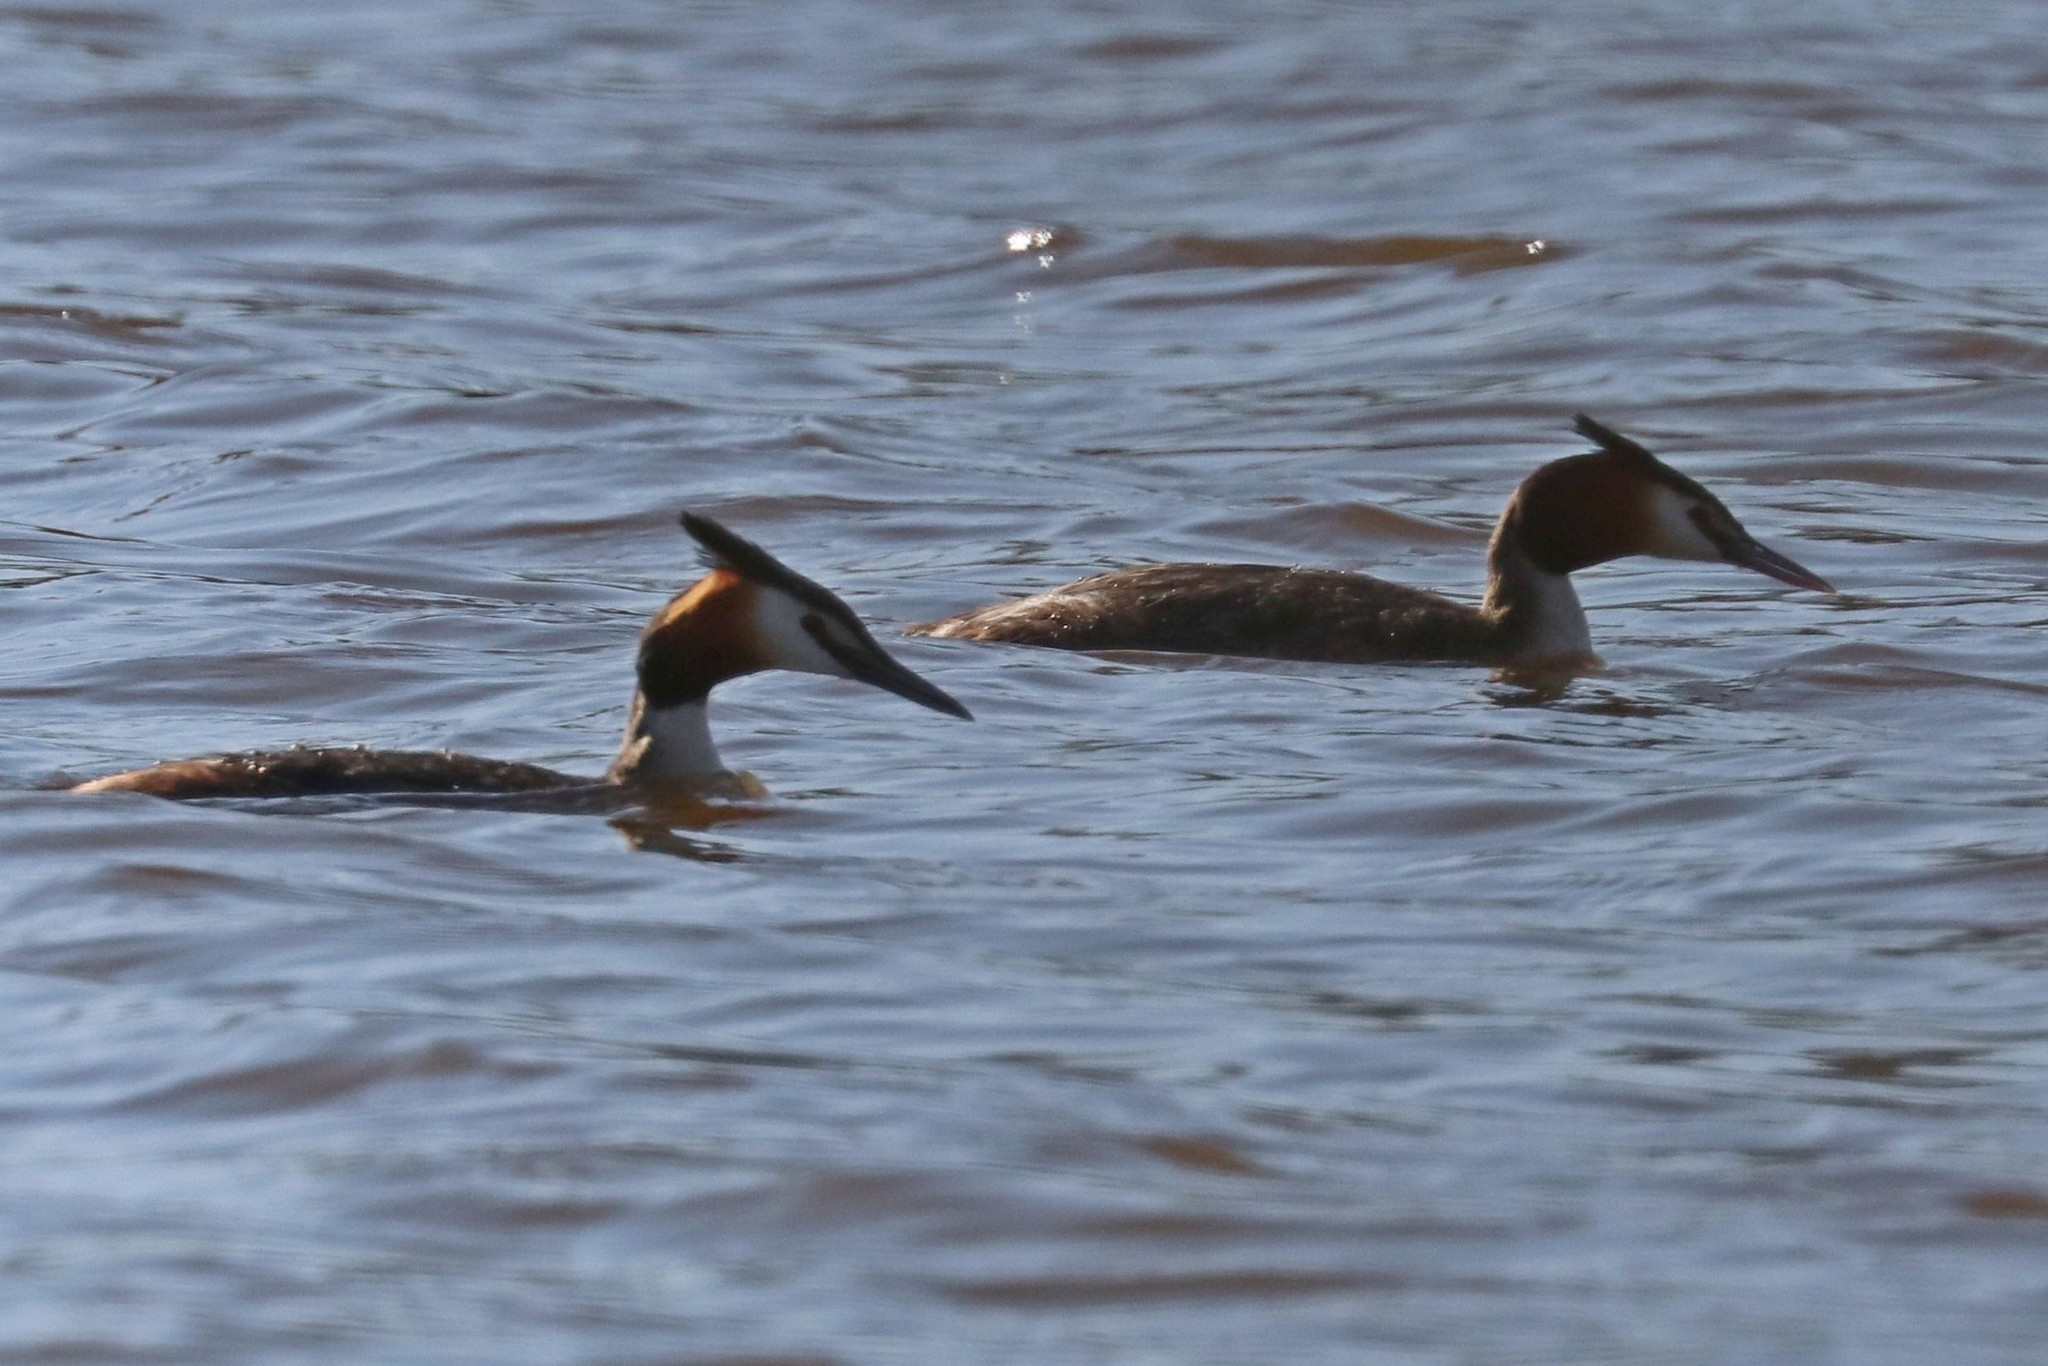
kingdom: Animalia
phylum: Chordata
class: Aves
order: Podicipediformes
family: Podicipedidae
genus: Podiceps
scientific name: Podiceps cristatus
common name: Great crested grebe
